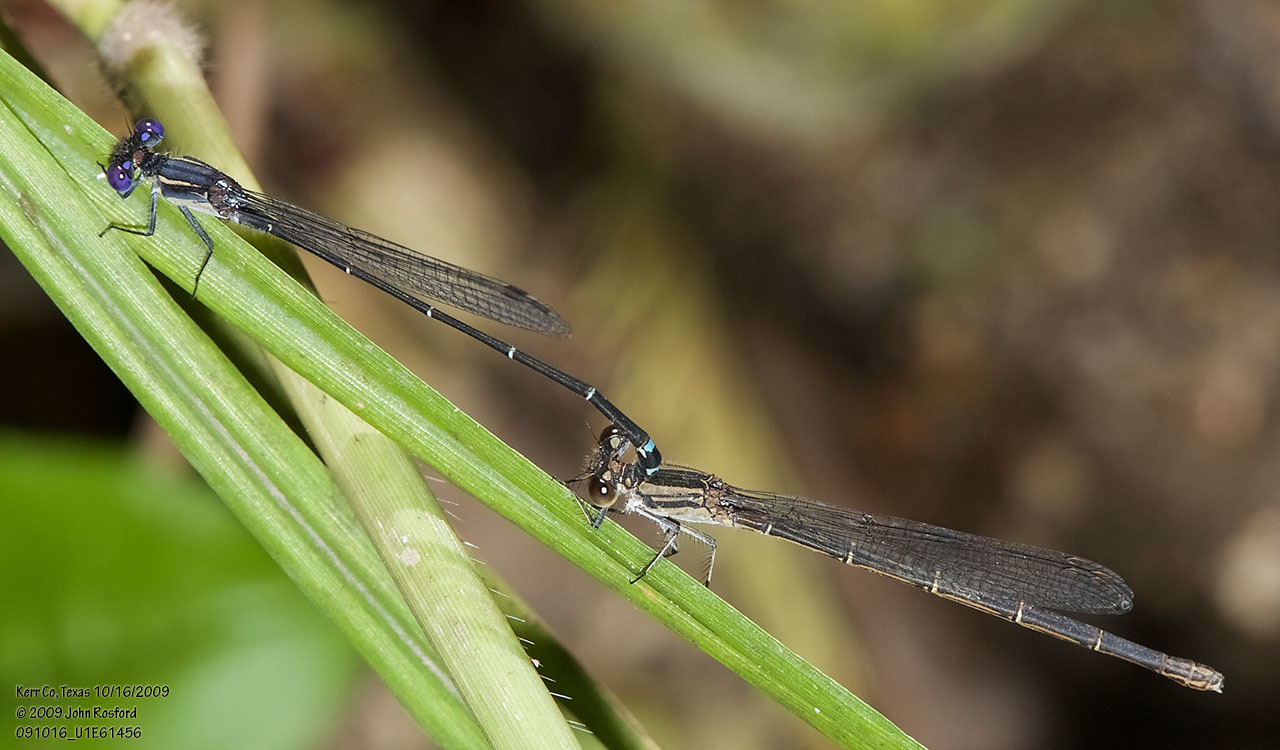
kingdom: Animalia
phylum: Arthropoda
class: Insecta
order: Odonata
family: Coenagrionidae
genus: Argia
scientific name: Argia translata
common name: Dusky dancer
